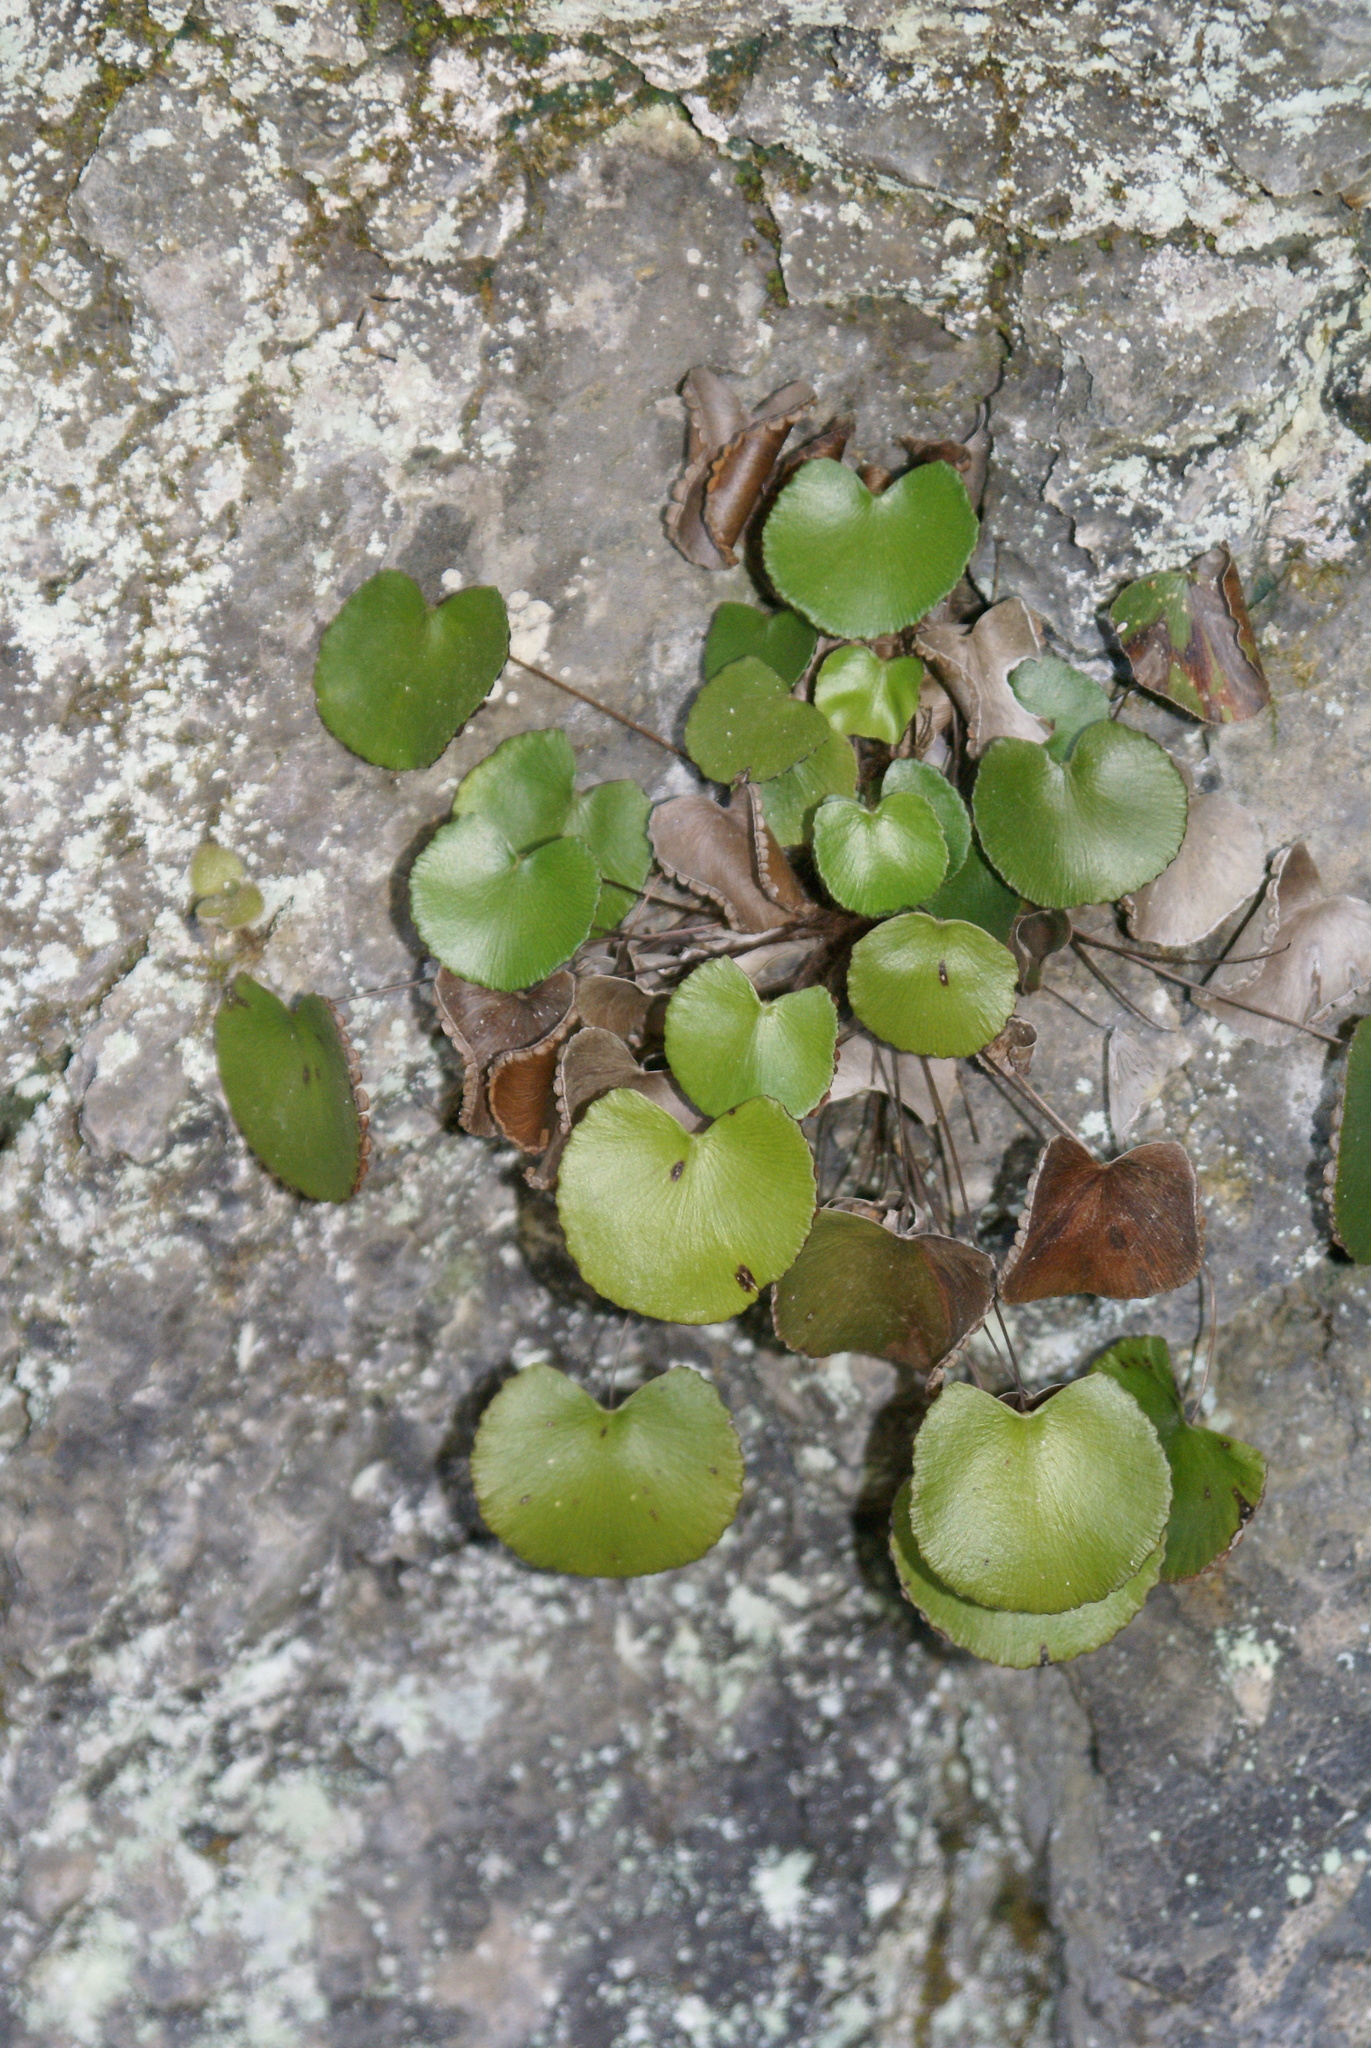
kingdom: Plantae
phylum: Tracheophyta
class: Polypodiopsida
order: Polypodiales
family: Pteridaceae
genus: Adiantum
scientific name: Adiantum reniforme
